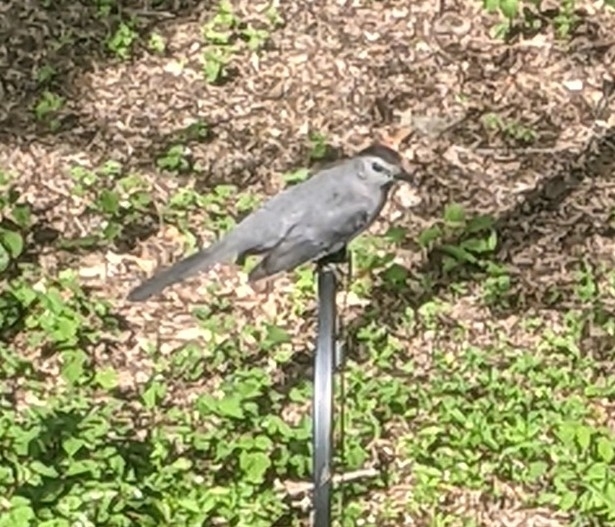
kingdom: Animalia
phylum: Chordata
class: Aves
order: Passeriformes
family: Mimidae
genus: Dumetella
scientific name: Dumetella carolinensis
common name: Gray catbird
